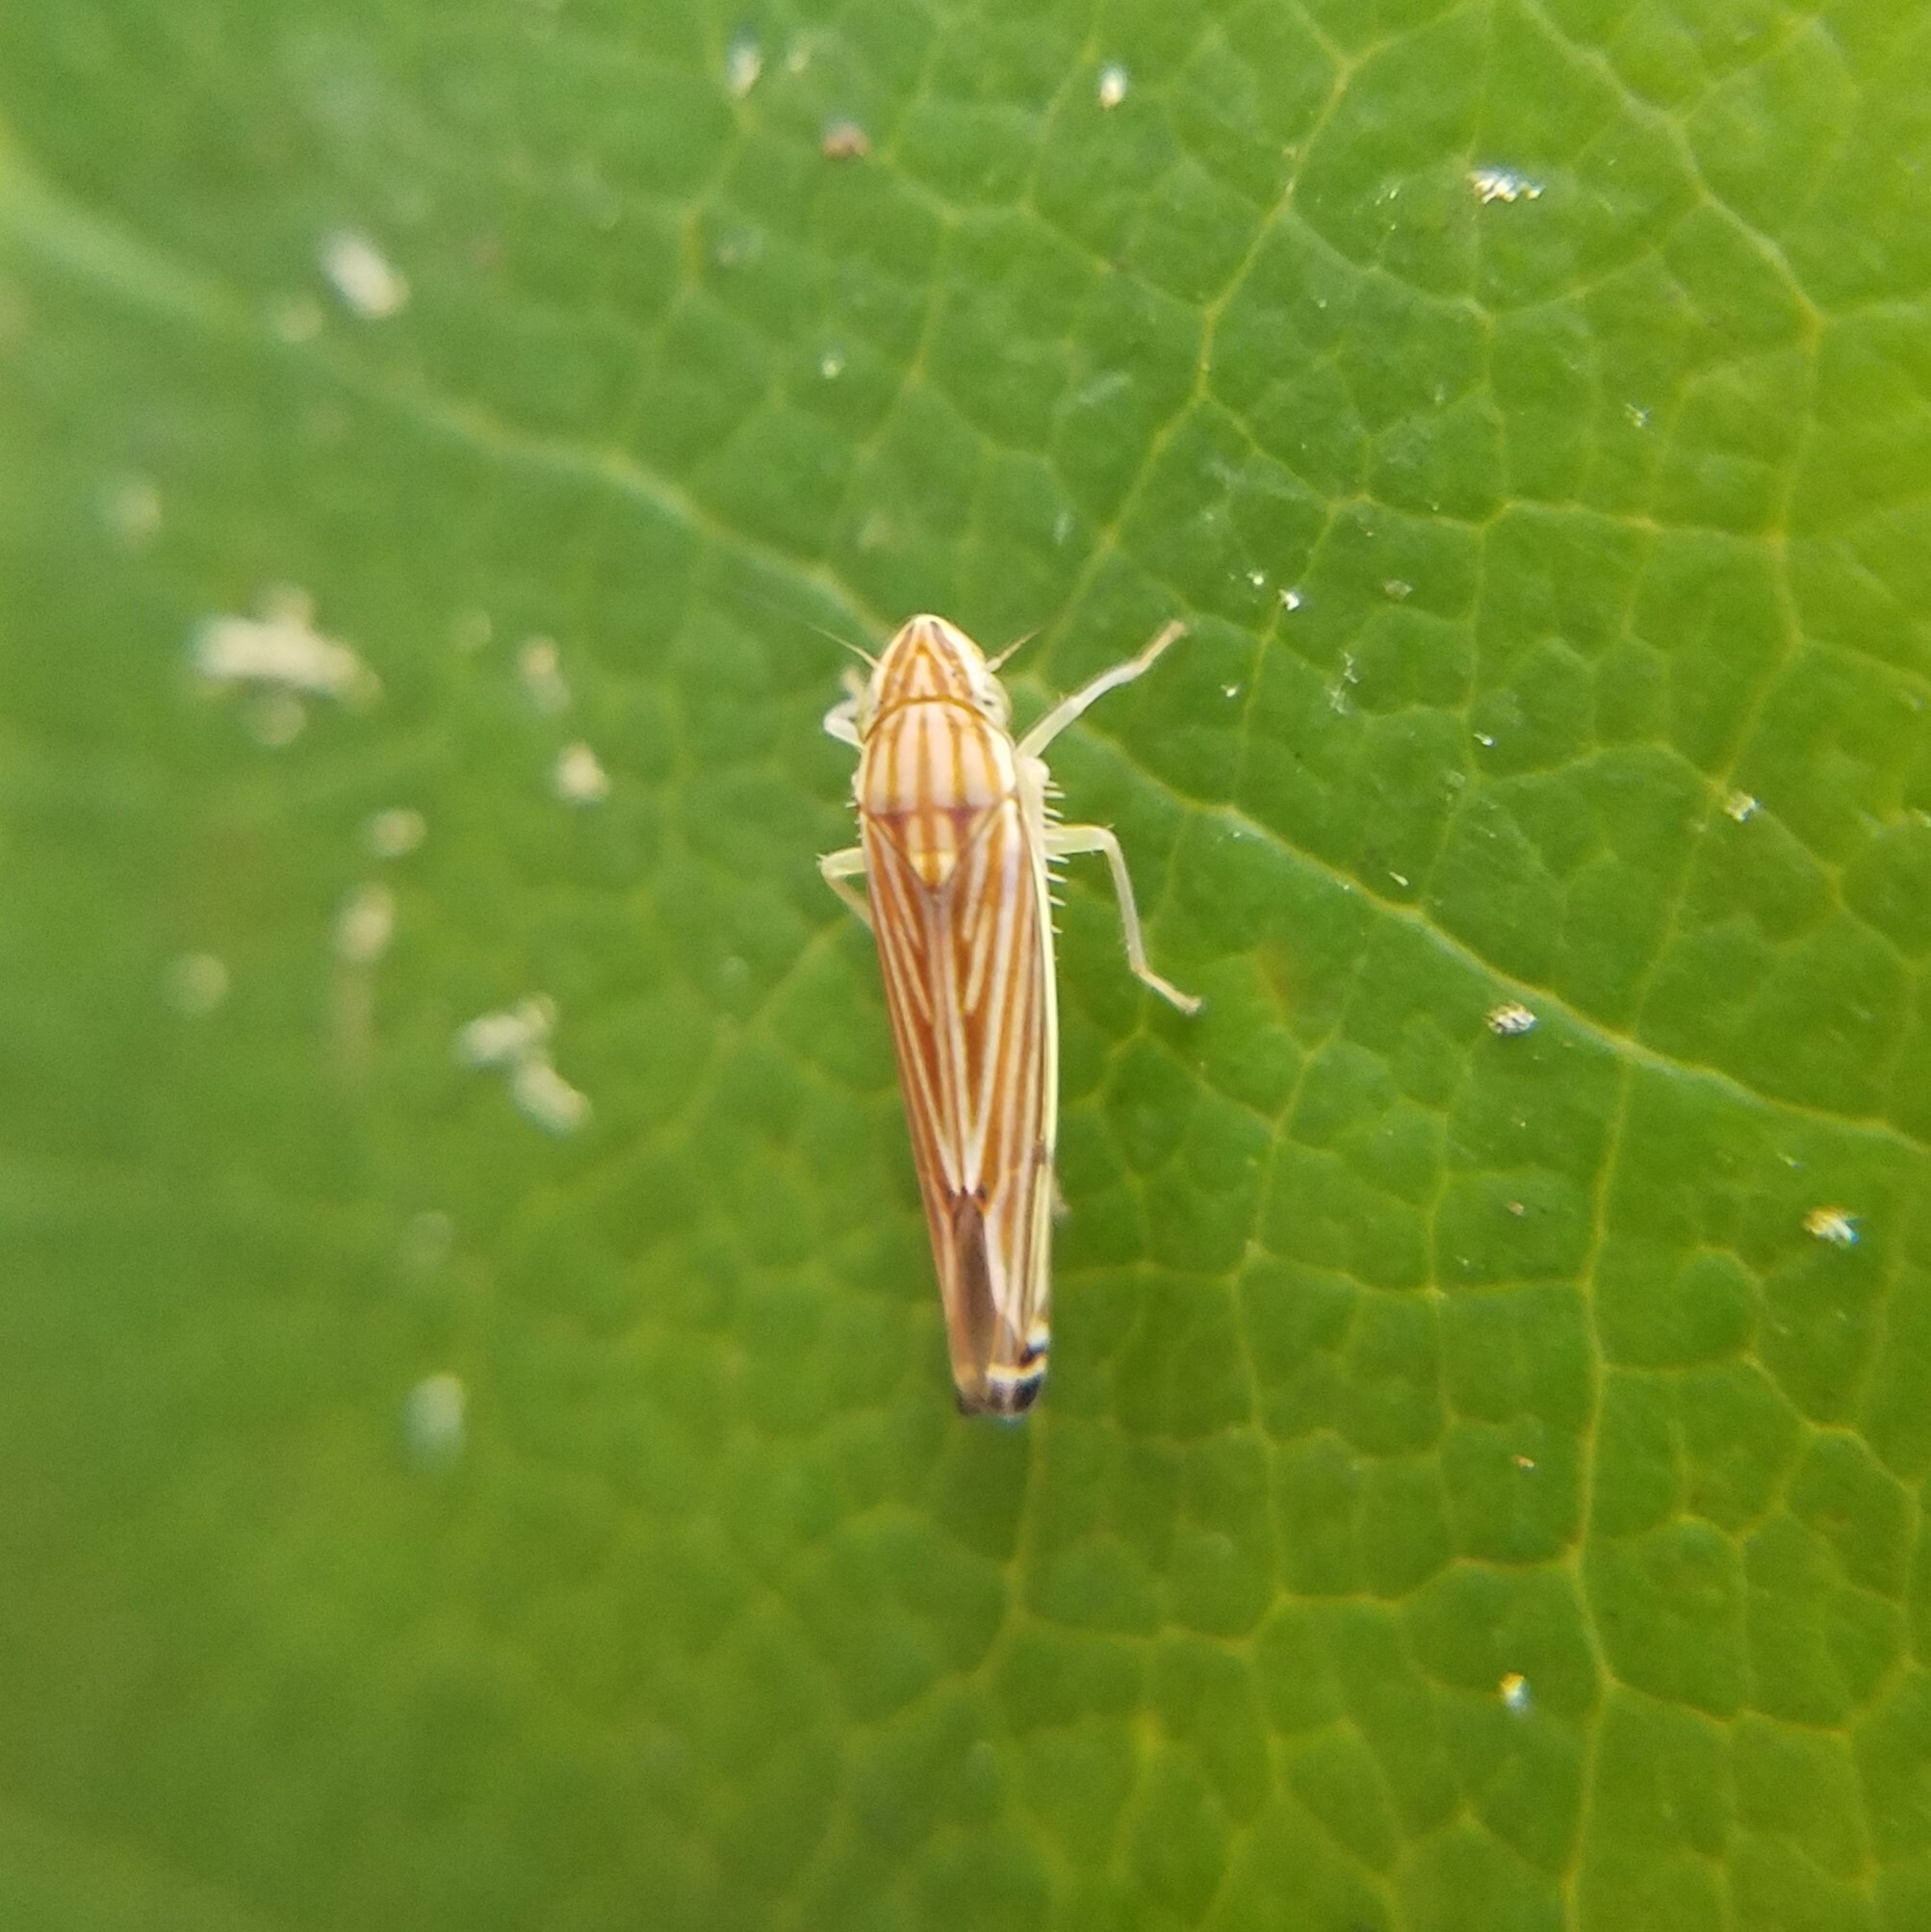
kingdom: Animalia
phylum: Arthropoda
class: Insecta
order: Hemiptera
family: Cicadellidae
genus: Sibovia
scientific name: Sibovia occatoria
